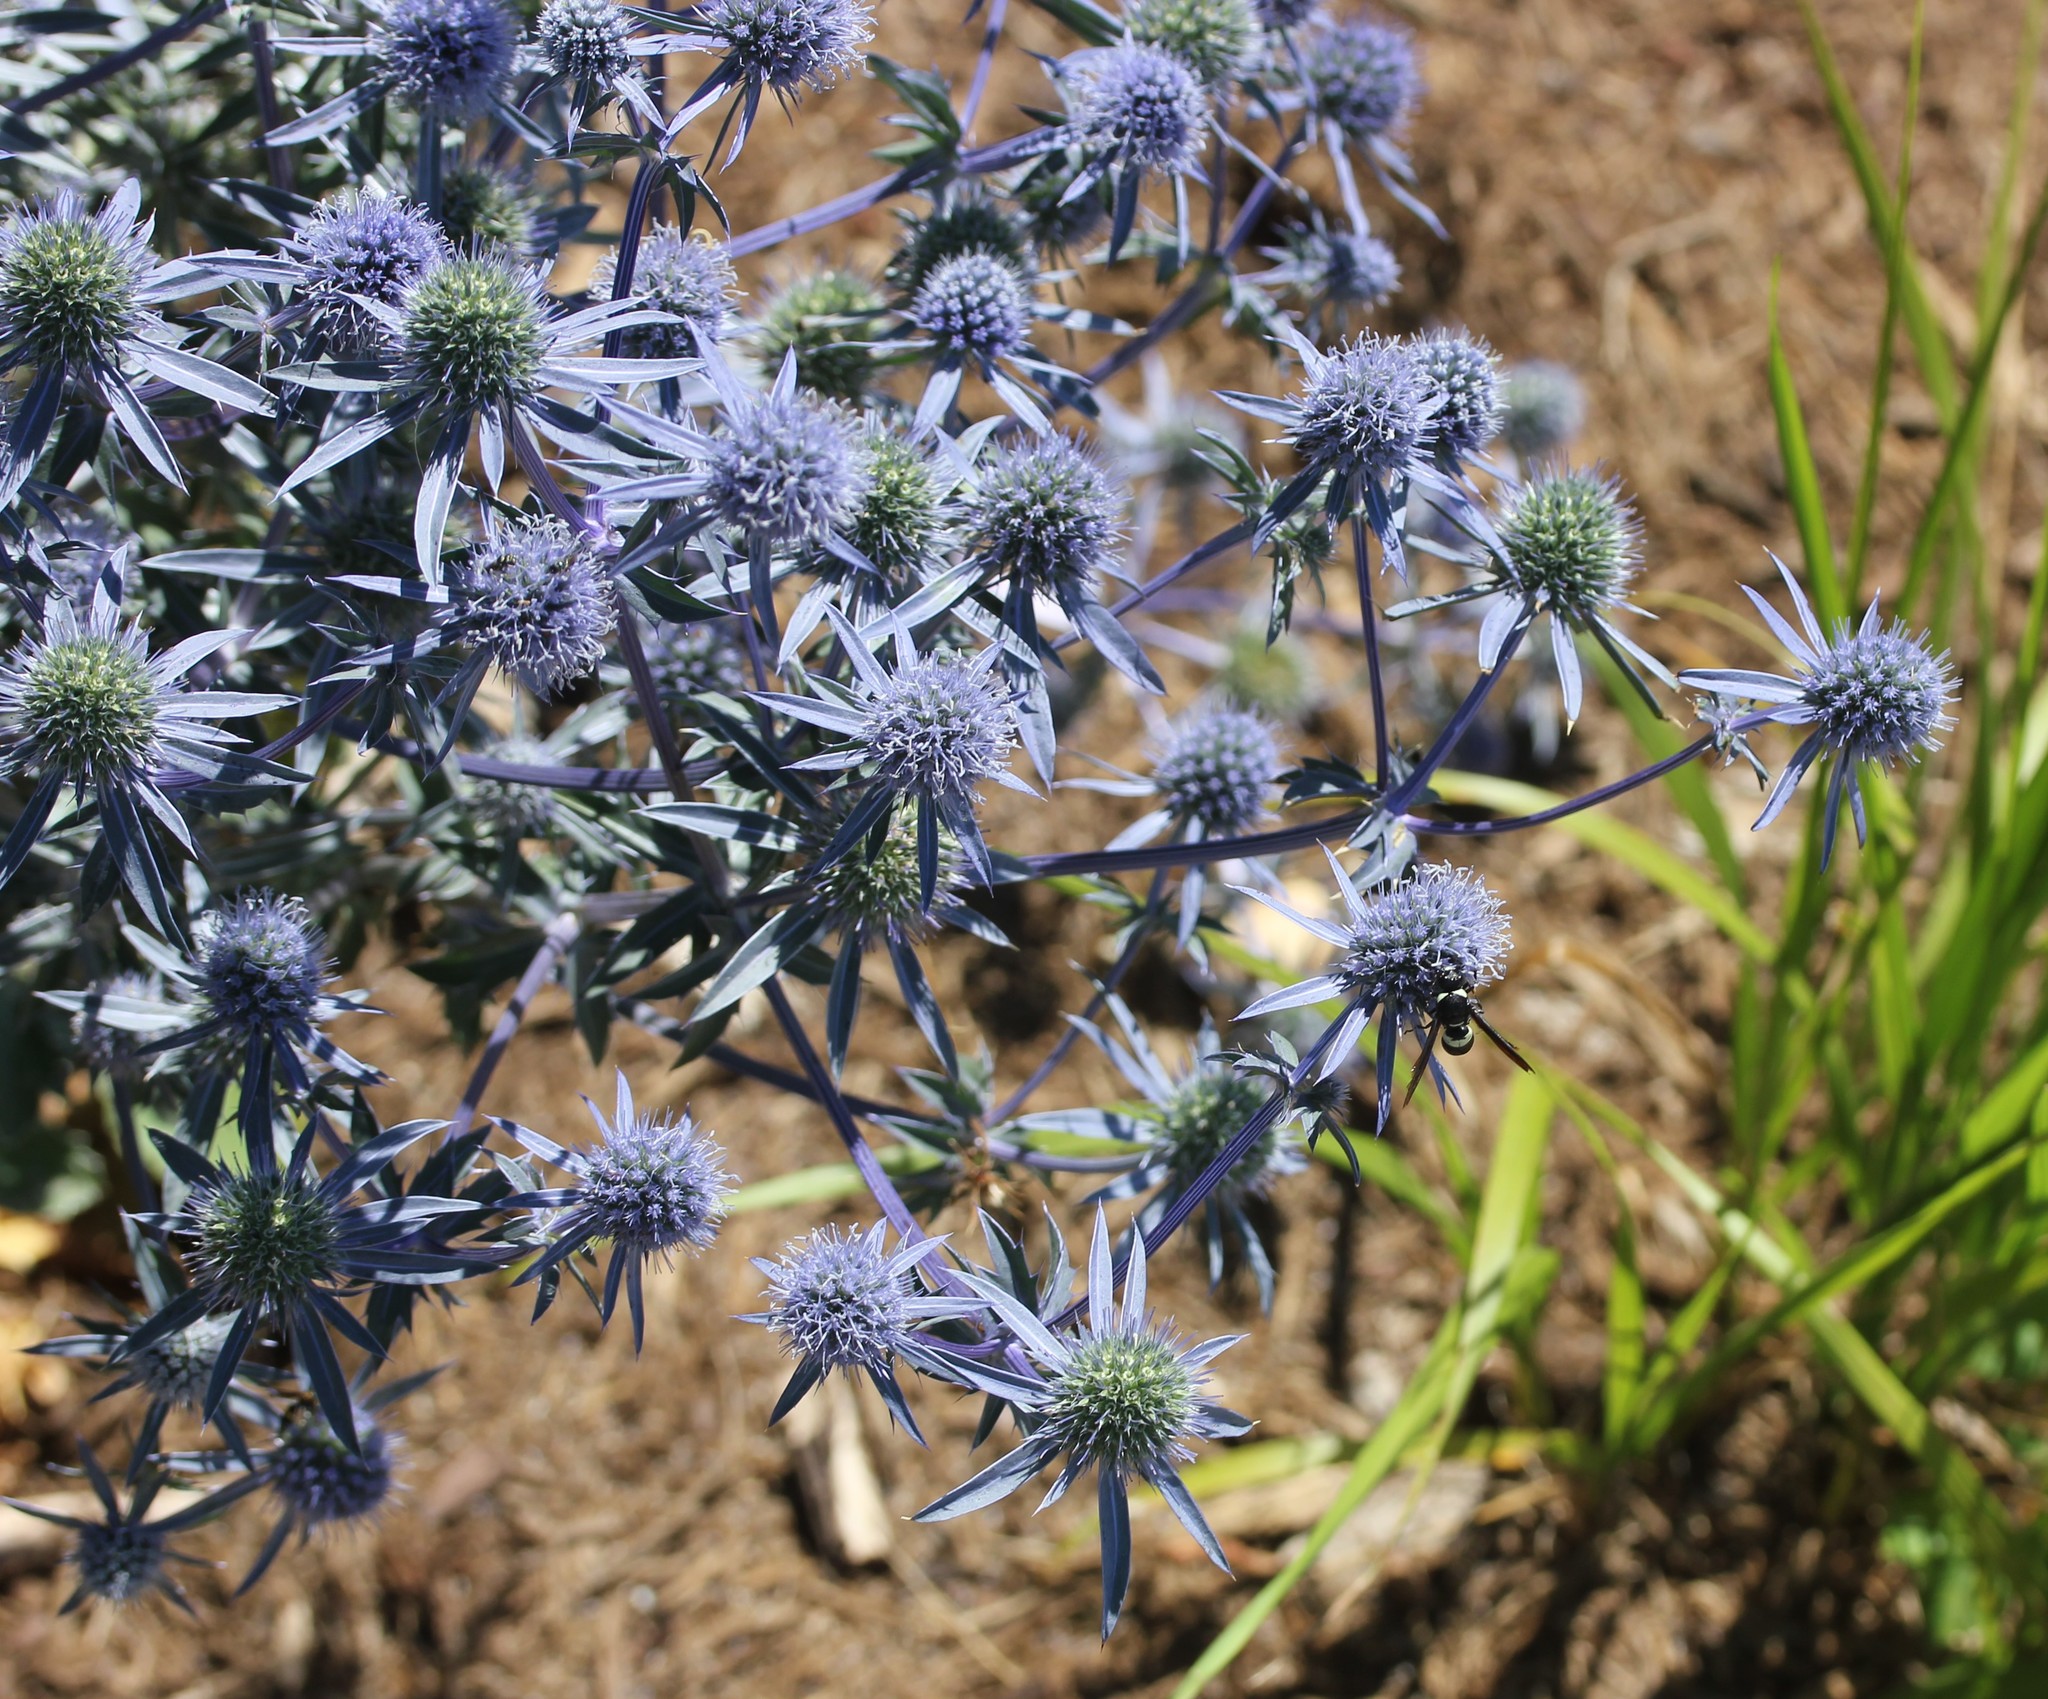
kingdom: Plantae
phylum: Tracheophyta
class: Magnoliopsida
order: Apiales
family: Apiaceae
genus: Eryngium
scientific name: Eryngium planum
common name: Blue eryngo
